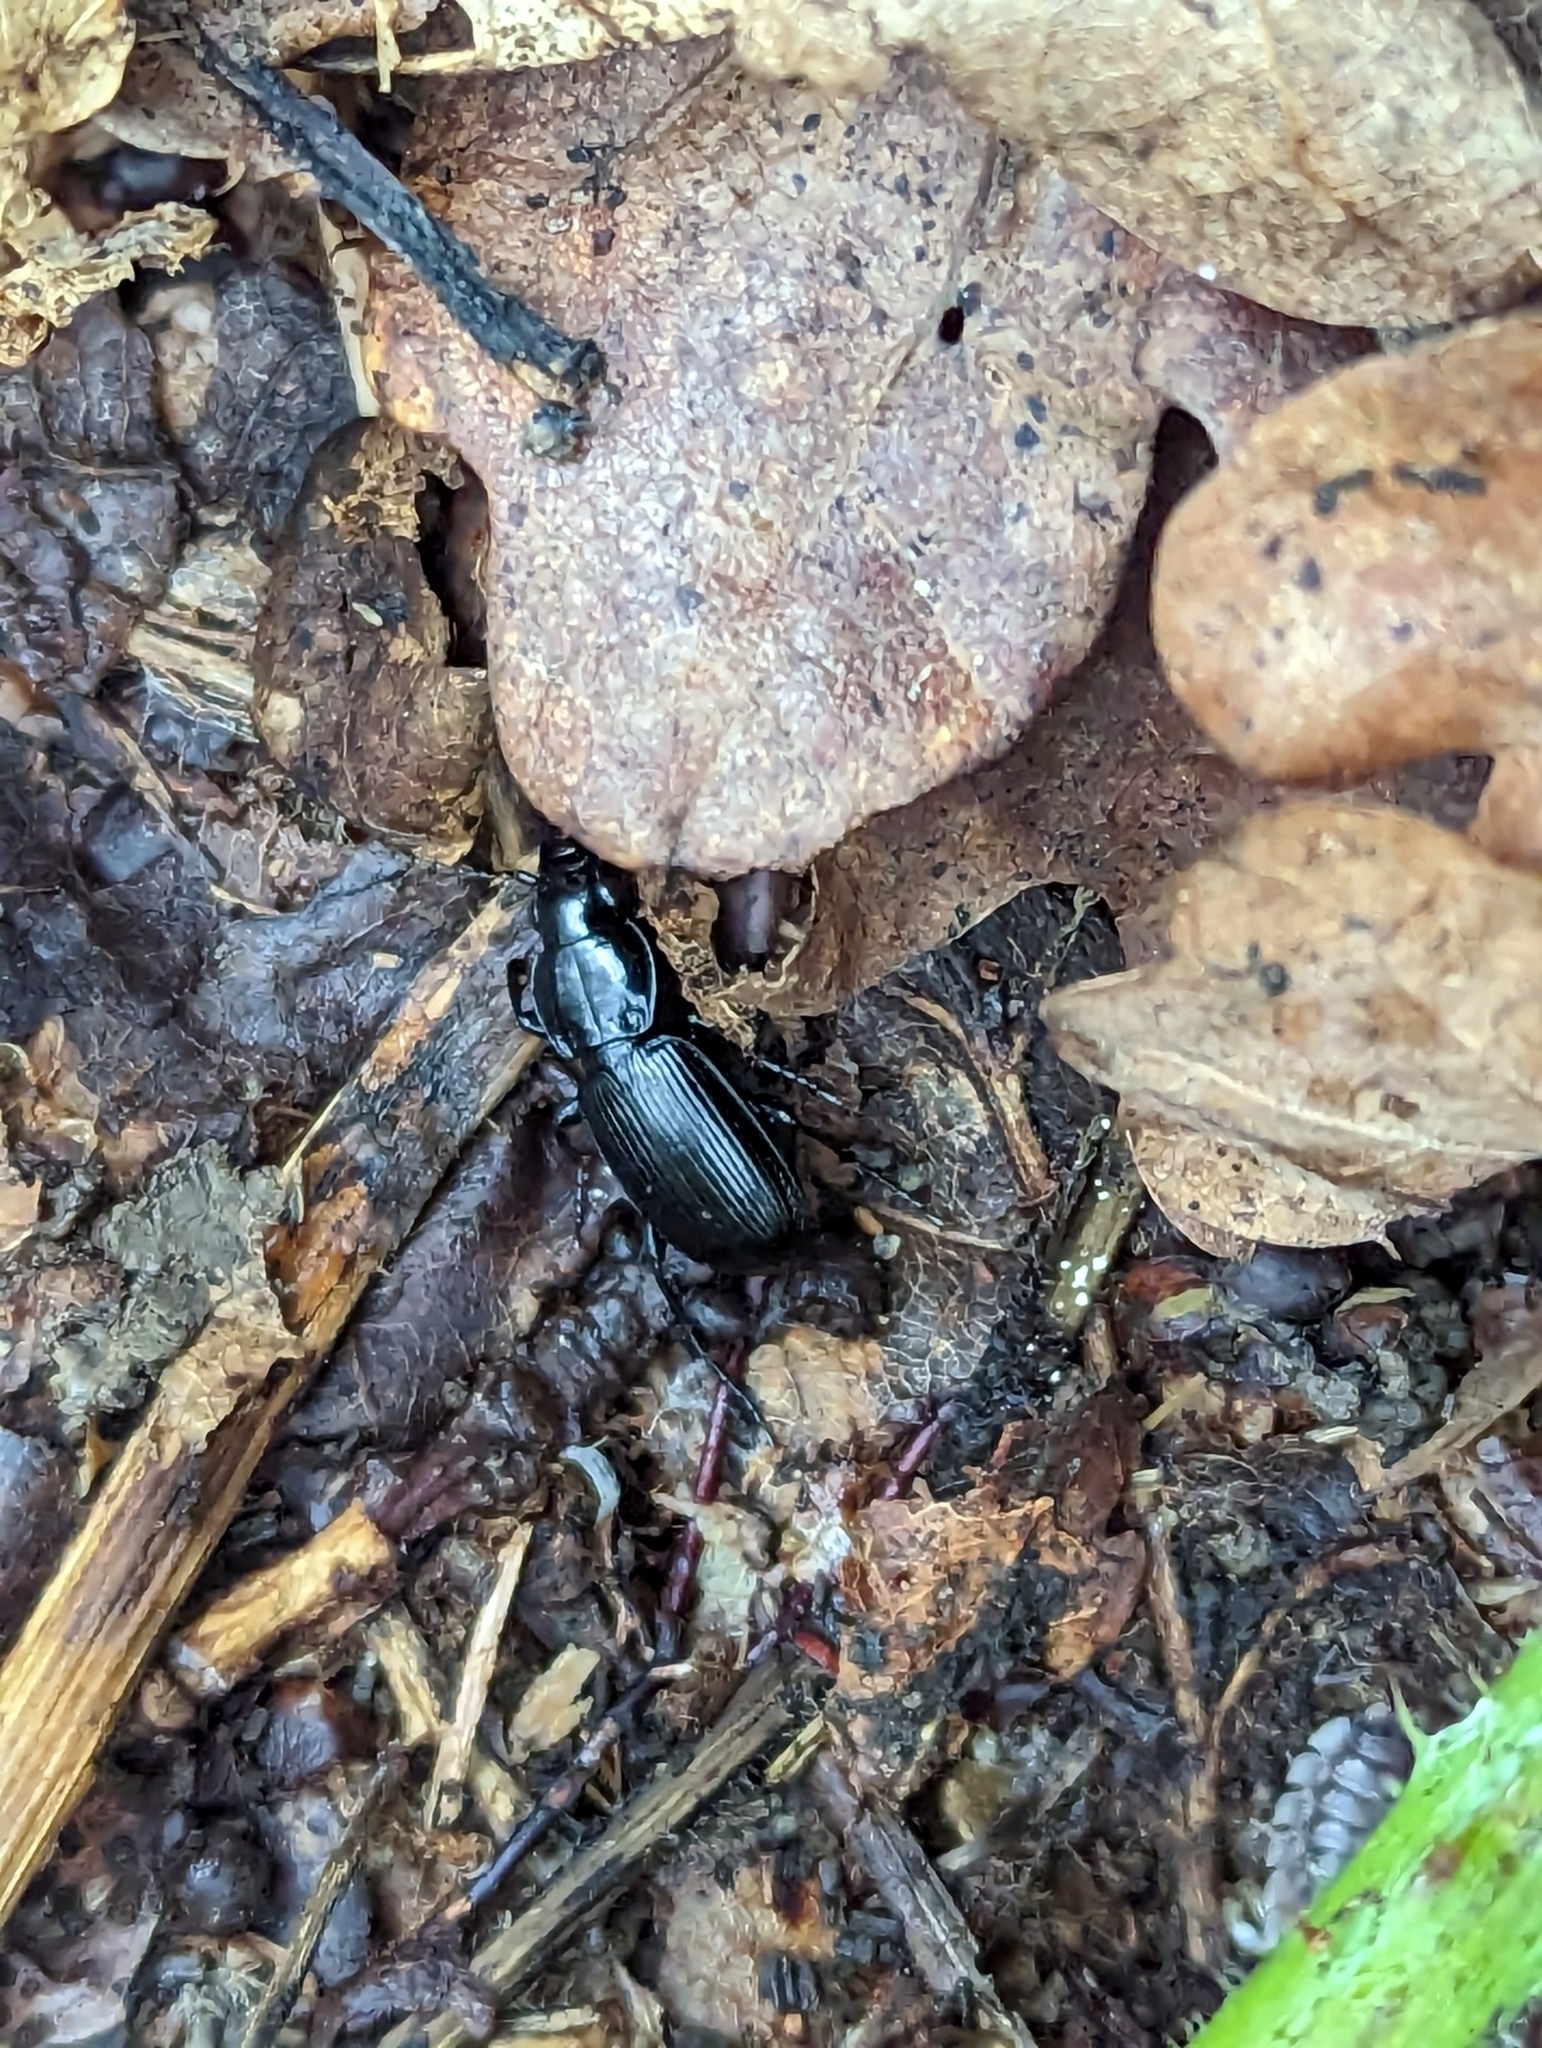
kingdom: Animalia
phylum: Arthropoda
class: Insecta
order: Coleoptera
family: Carabidae
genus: Pterostichus
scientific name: Pterostichus madidus
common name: Black clock
